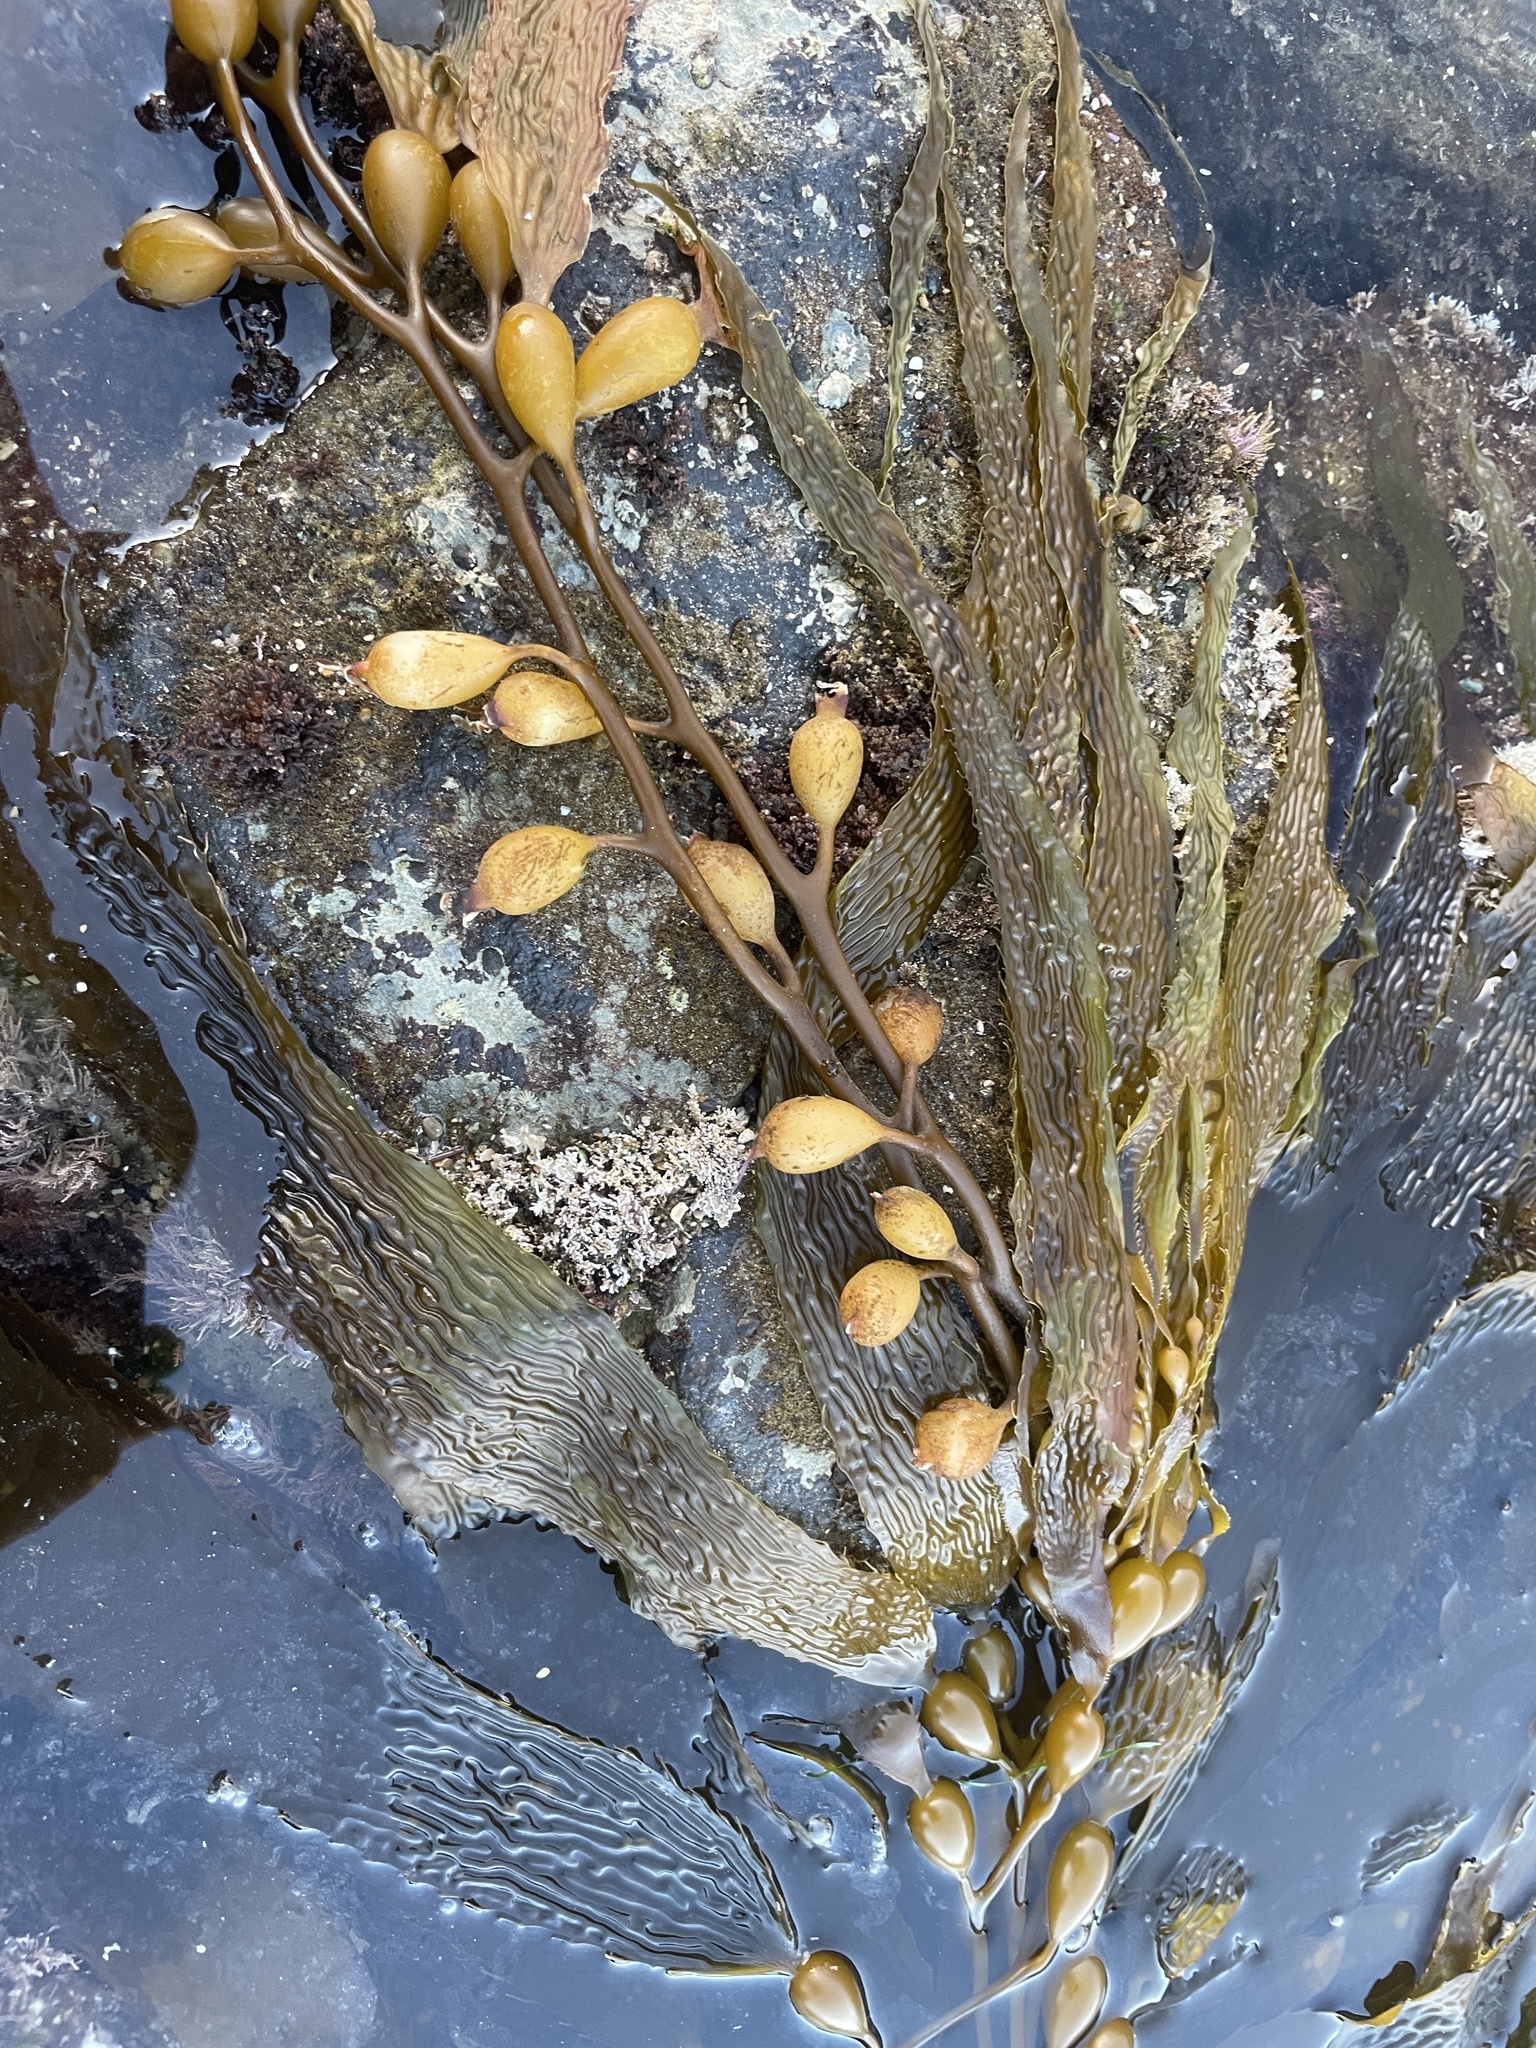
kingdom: Chromista
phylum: Ochrophyta
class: Phaeophyceae
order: Laminariales
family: Laminariaceae
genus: Macrocystis
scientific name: Macrocystis pyrifera
